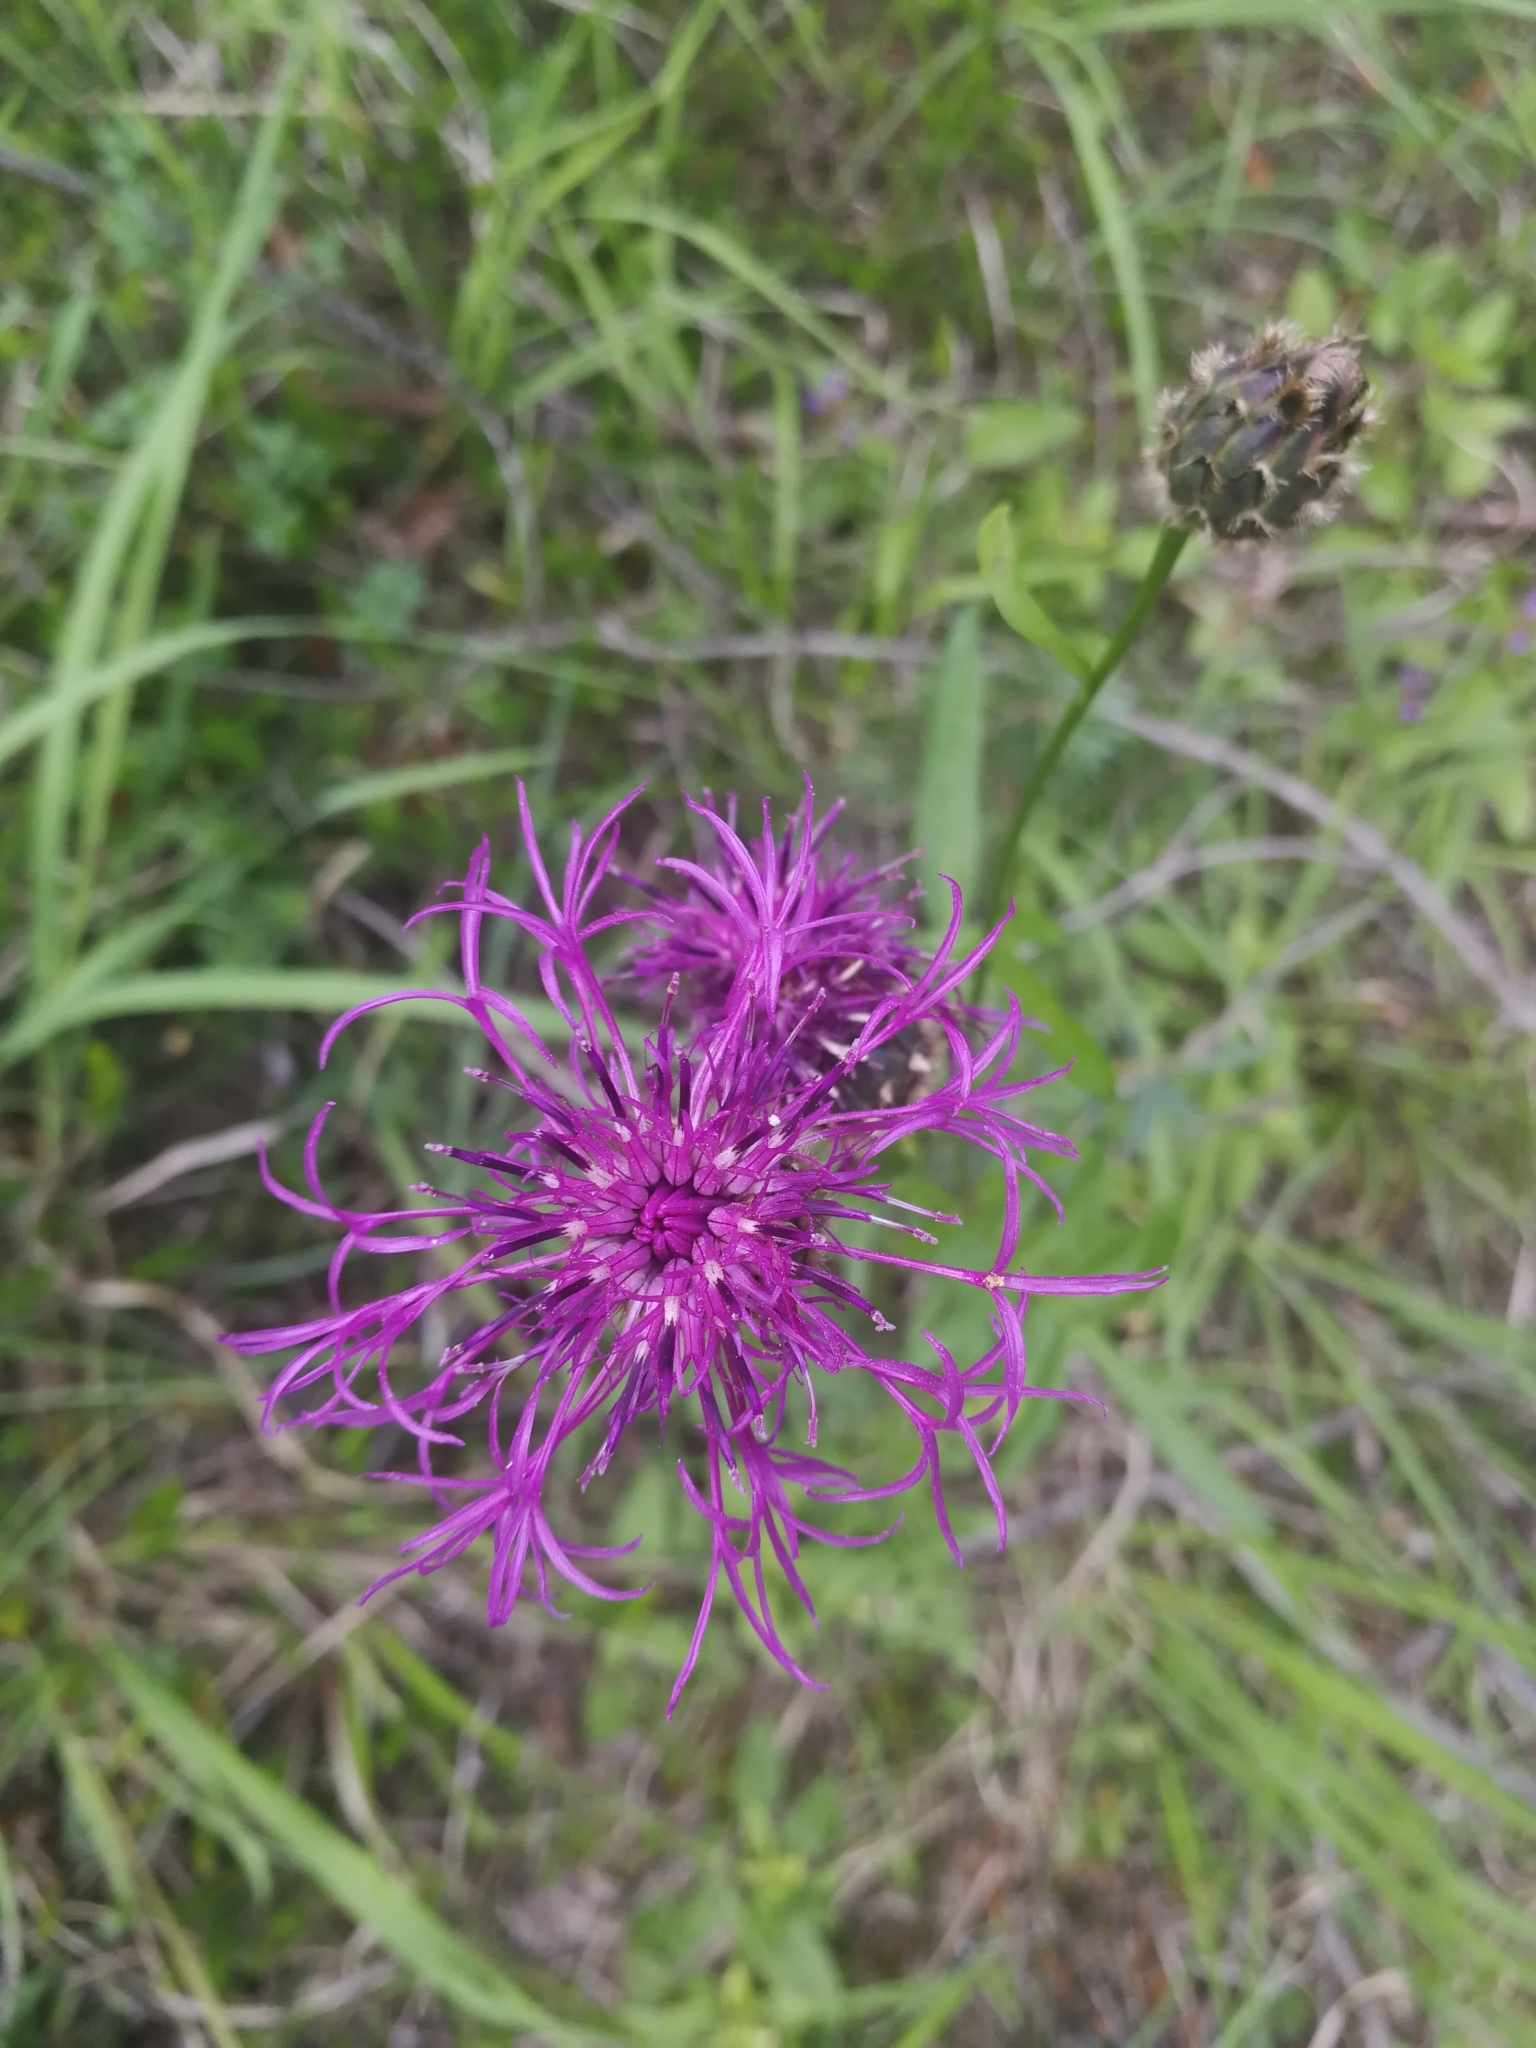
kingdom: Plantae
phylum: Tracheophyta
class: Magnoliopsida
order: Asterales
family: Asteraceae
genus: Centaurea
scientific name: Centaurea scabiosa
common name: Greater knapweed
